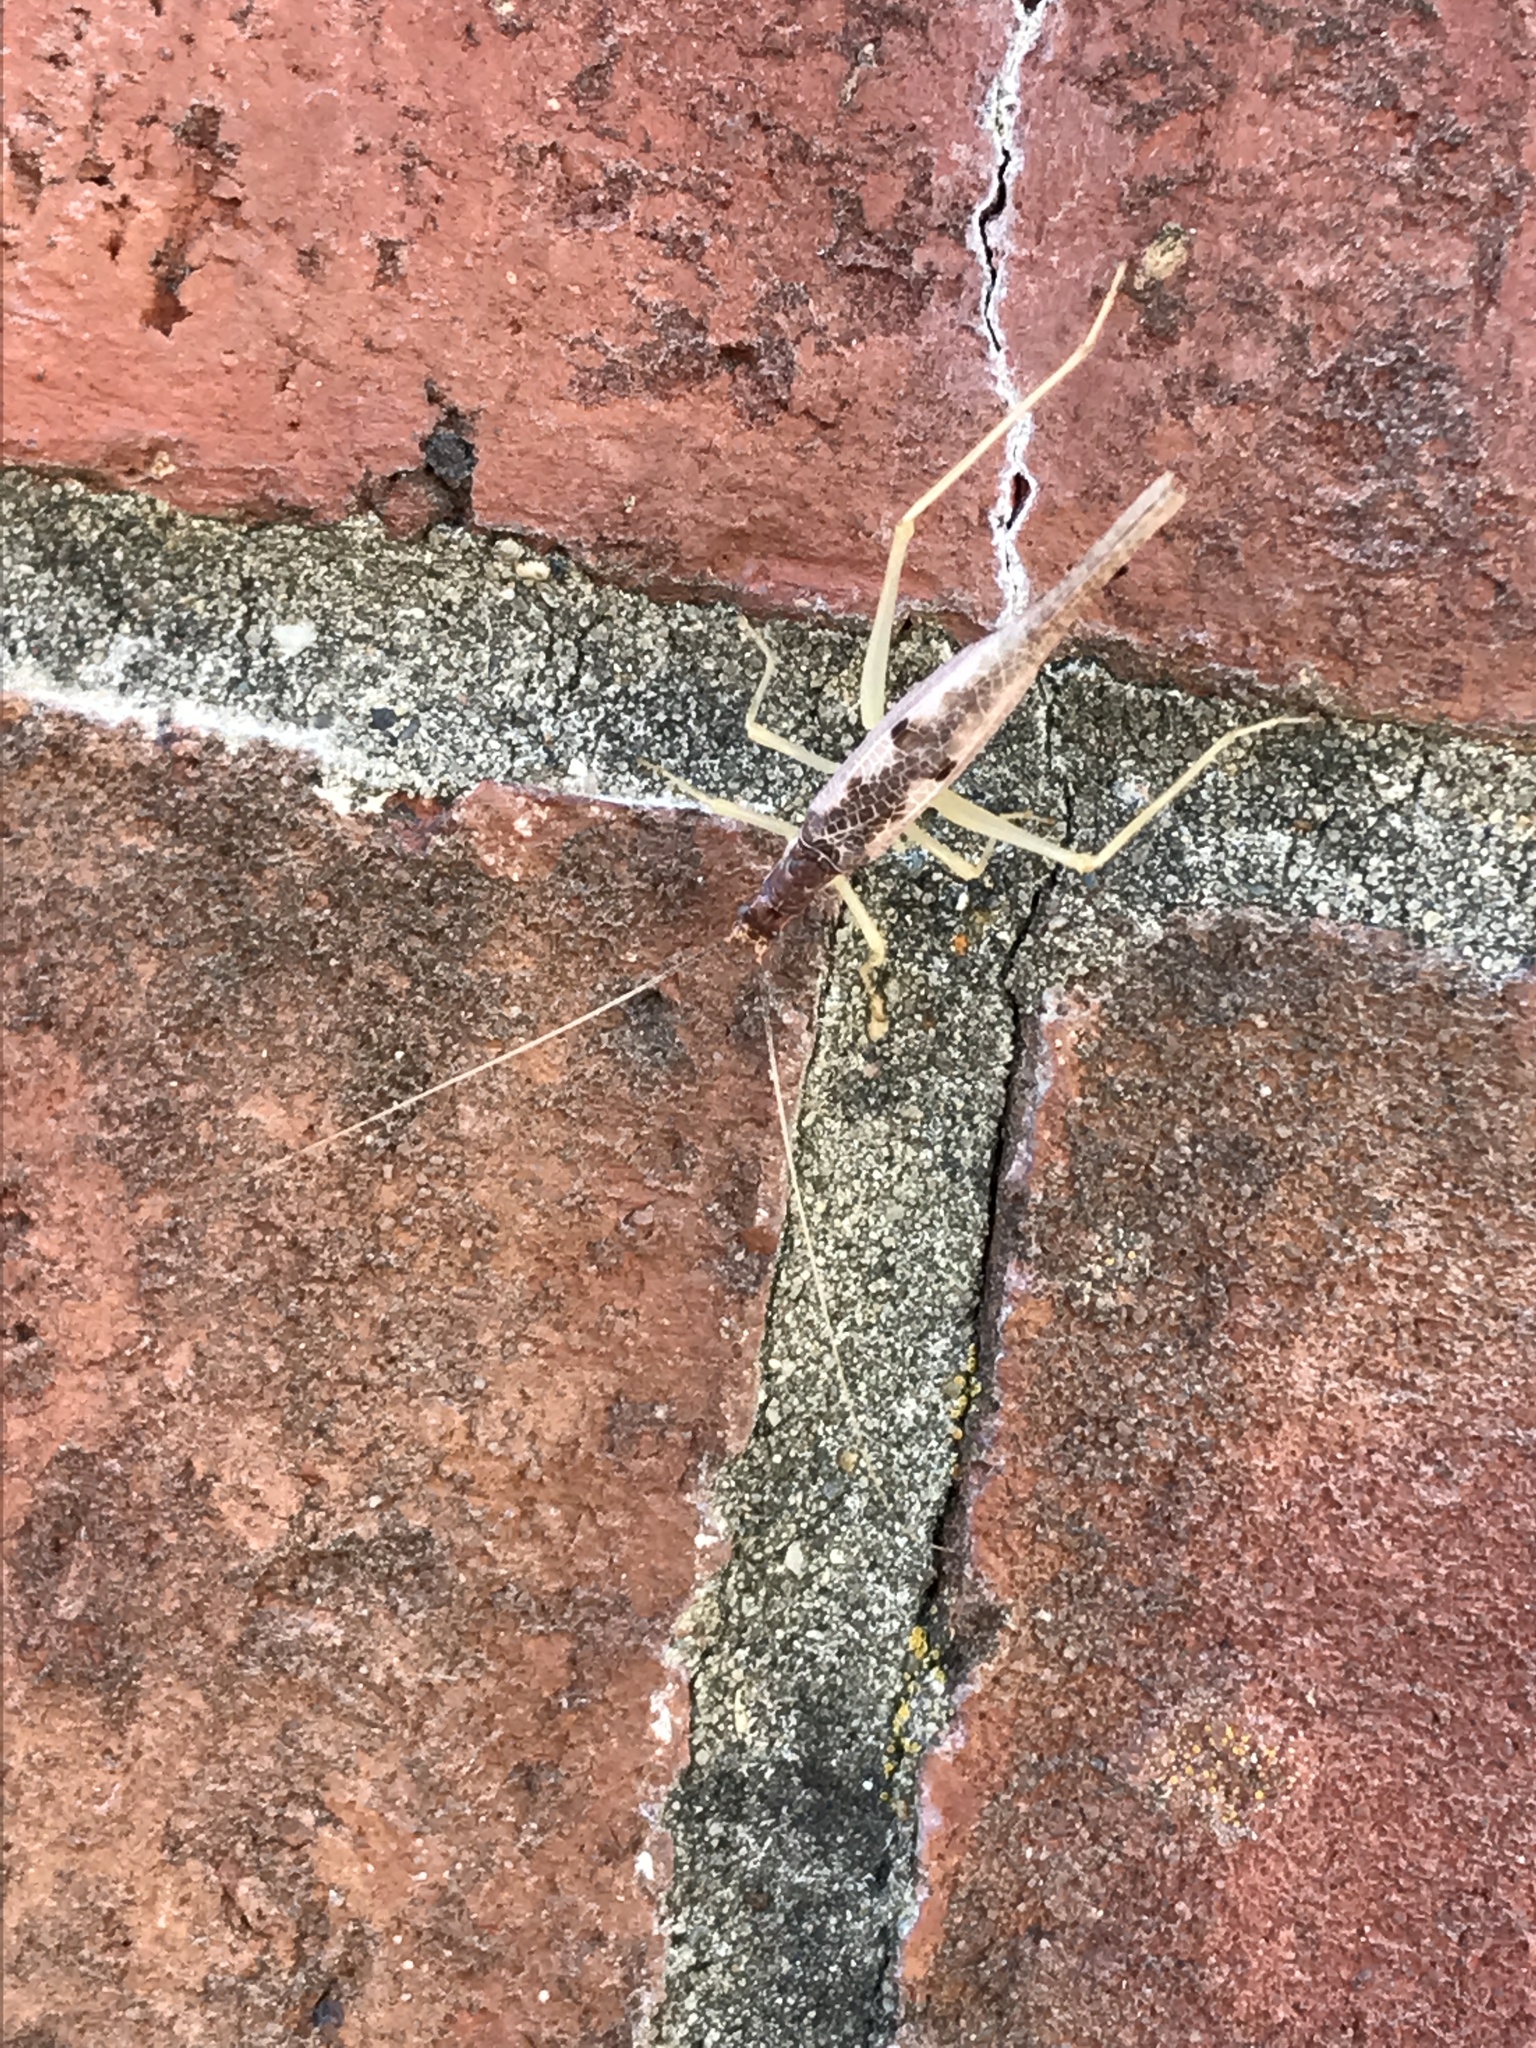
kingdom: Animalia
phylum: Arthropoda
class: Insecta
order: Orthoptera
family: Gryllidae
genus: Neoxabea
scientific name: Neoxabea bipunctata
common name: Two-spotted tree cricket
